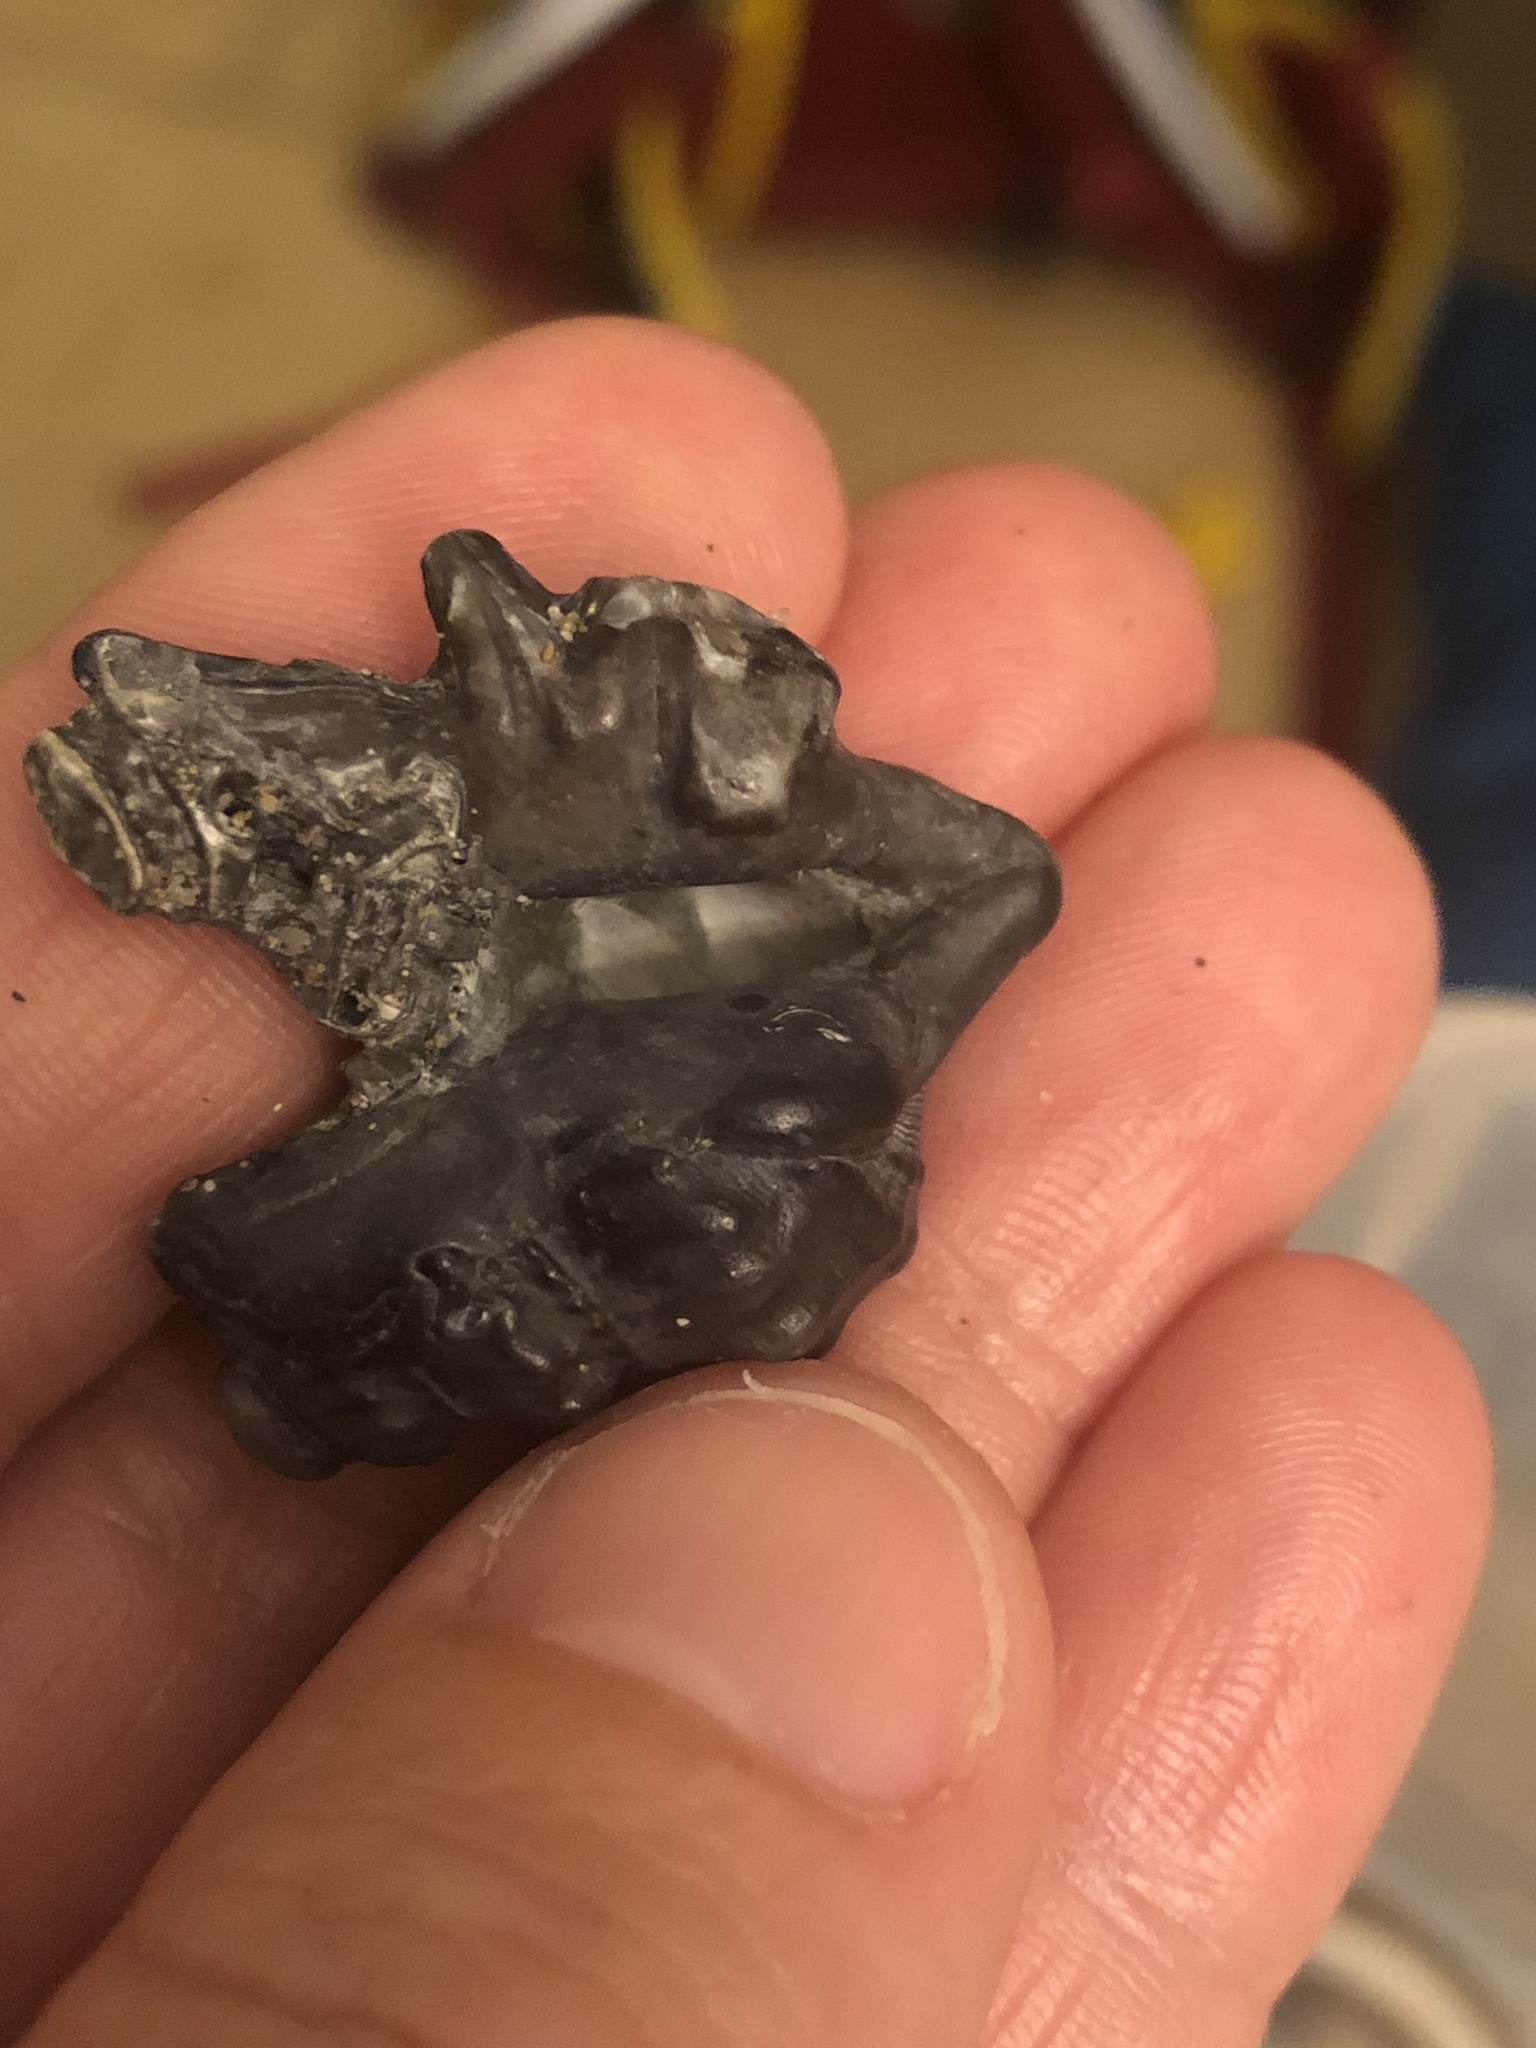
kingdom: Animalia
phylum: Mollusca
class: Gastropoda
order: Littorinimorpha
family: Aporrhaidae
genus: Aporrhais
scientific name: Aporrhais pespelecani
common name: Common pelican’s foot
